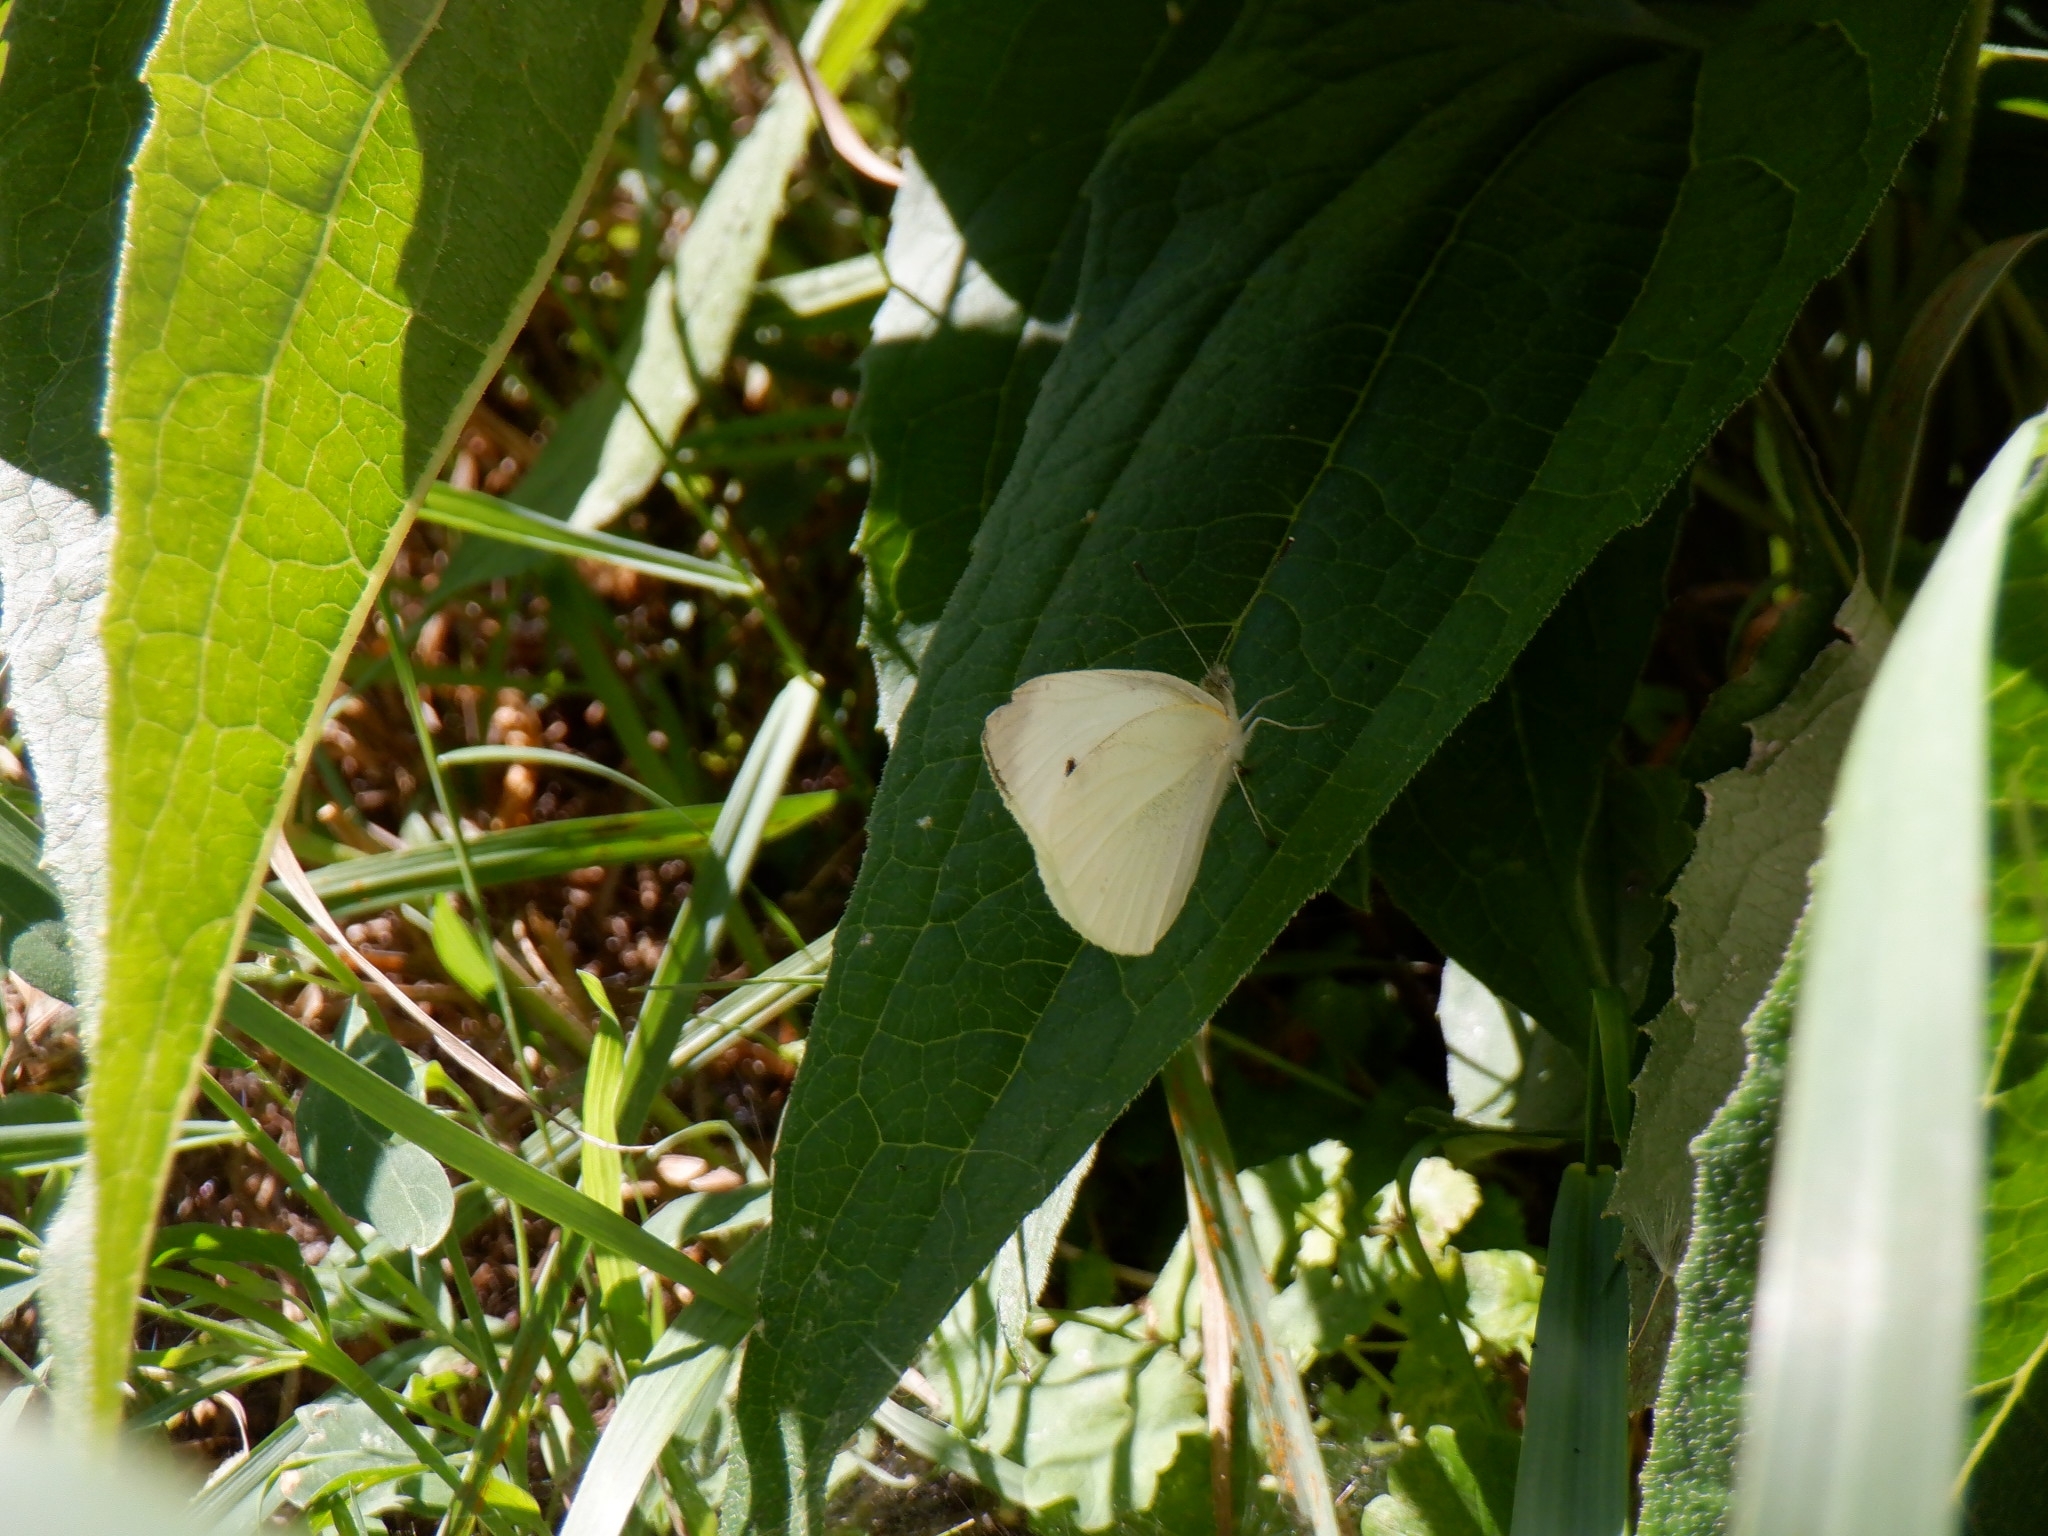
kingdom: Animalia
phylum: Arthropoda
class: Insecta
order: Lepidoptera
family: Pieridae
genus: Pieris
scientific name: Pieris rapae
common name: Small white
